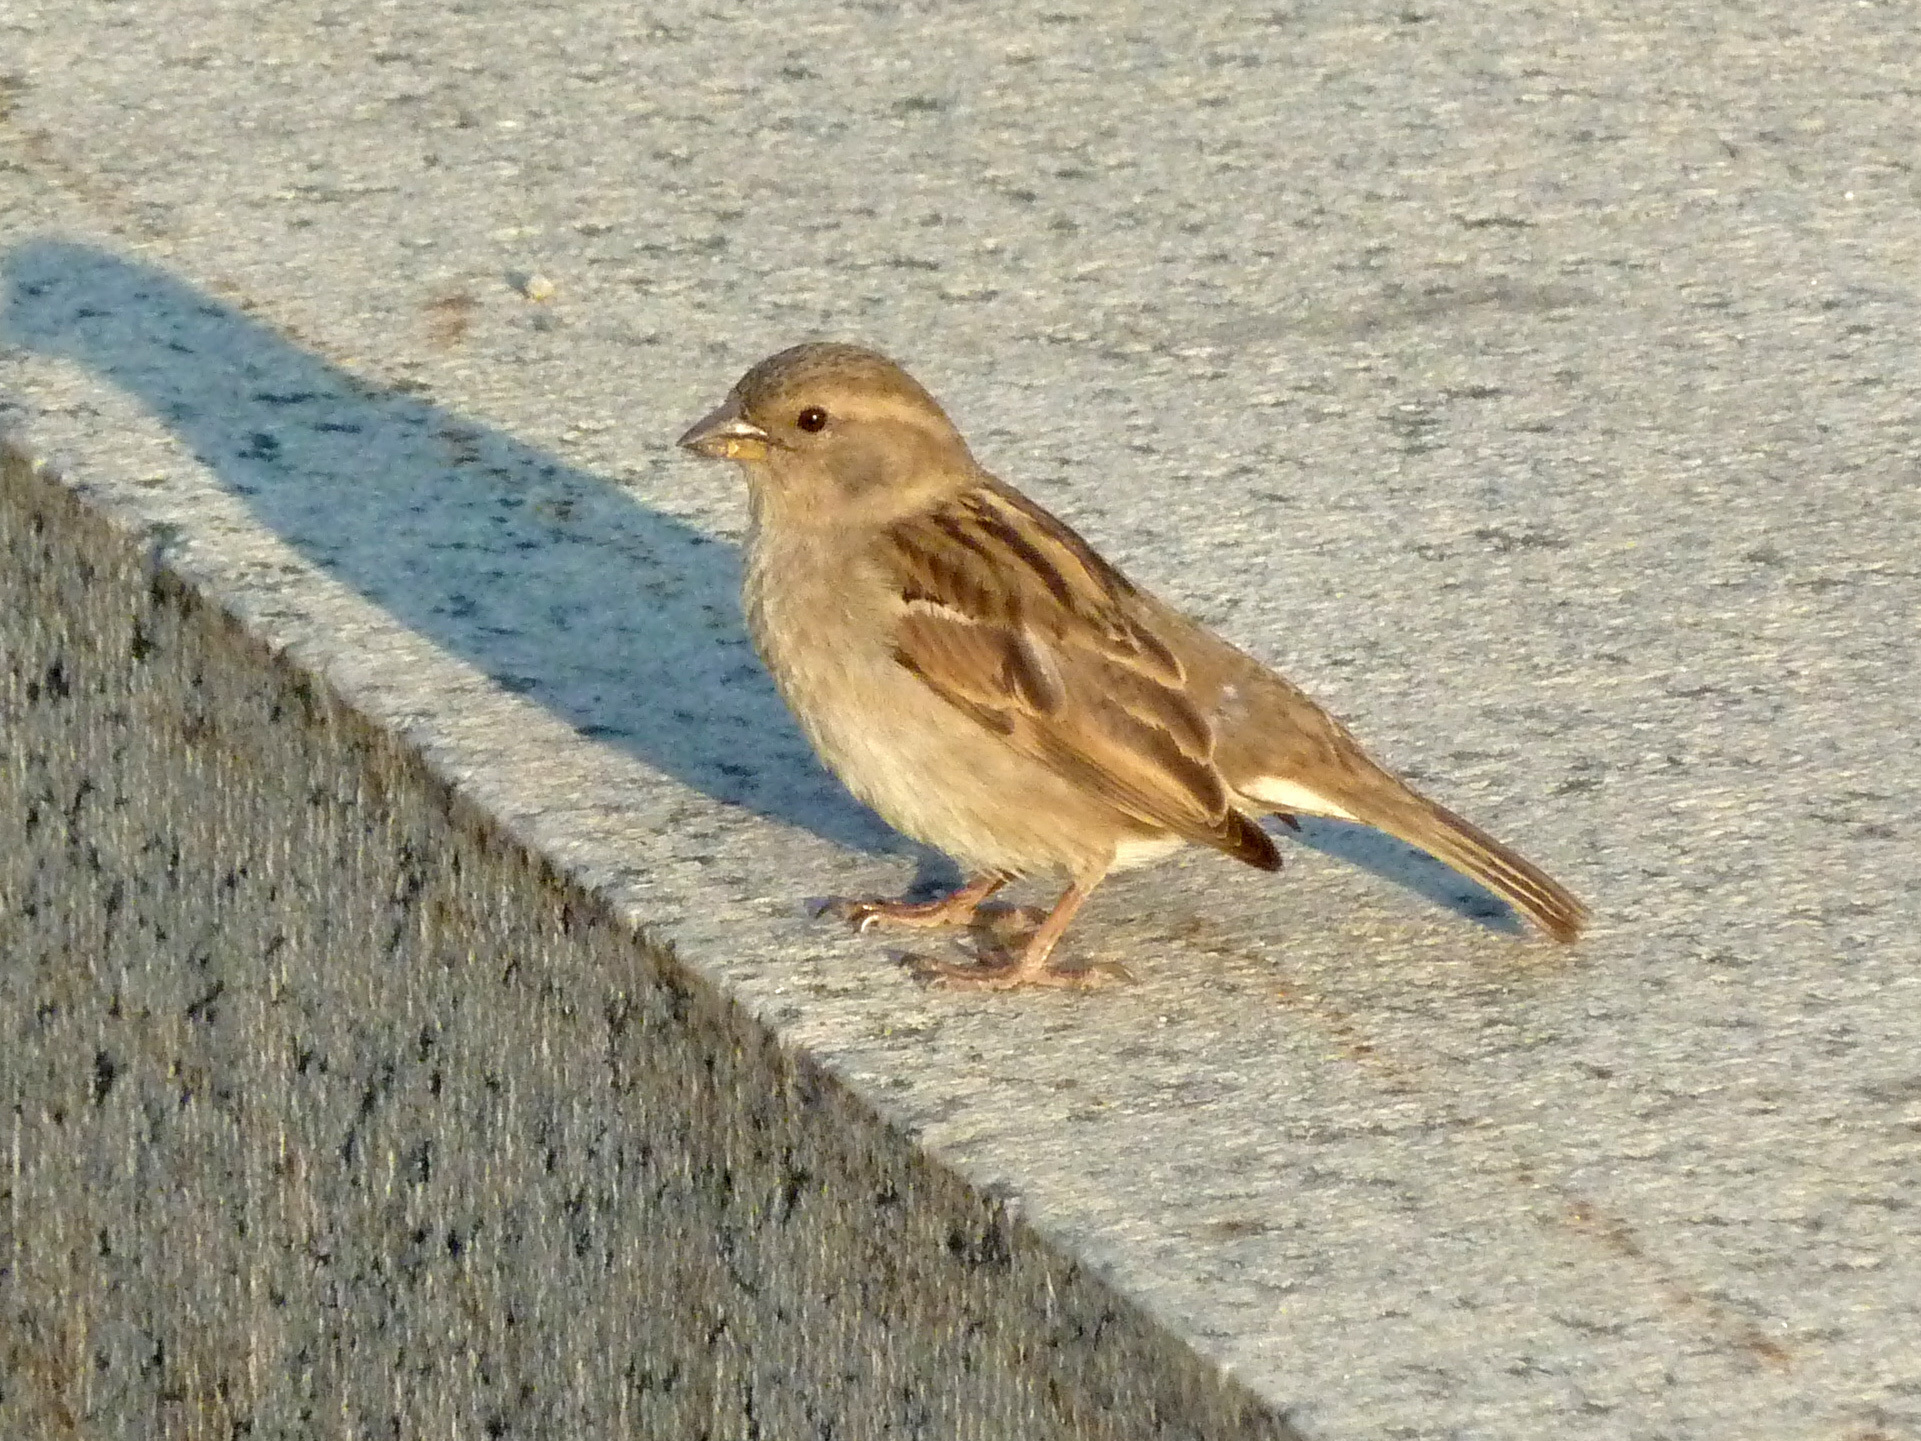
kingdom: Animalia
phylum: Chordata
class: Aves
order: Passeriformes
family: Passeridae
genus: Passer
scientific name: Passer domesticus
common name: House sparrow
